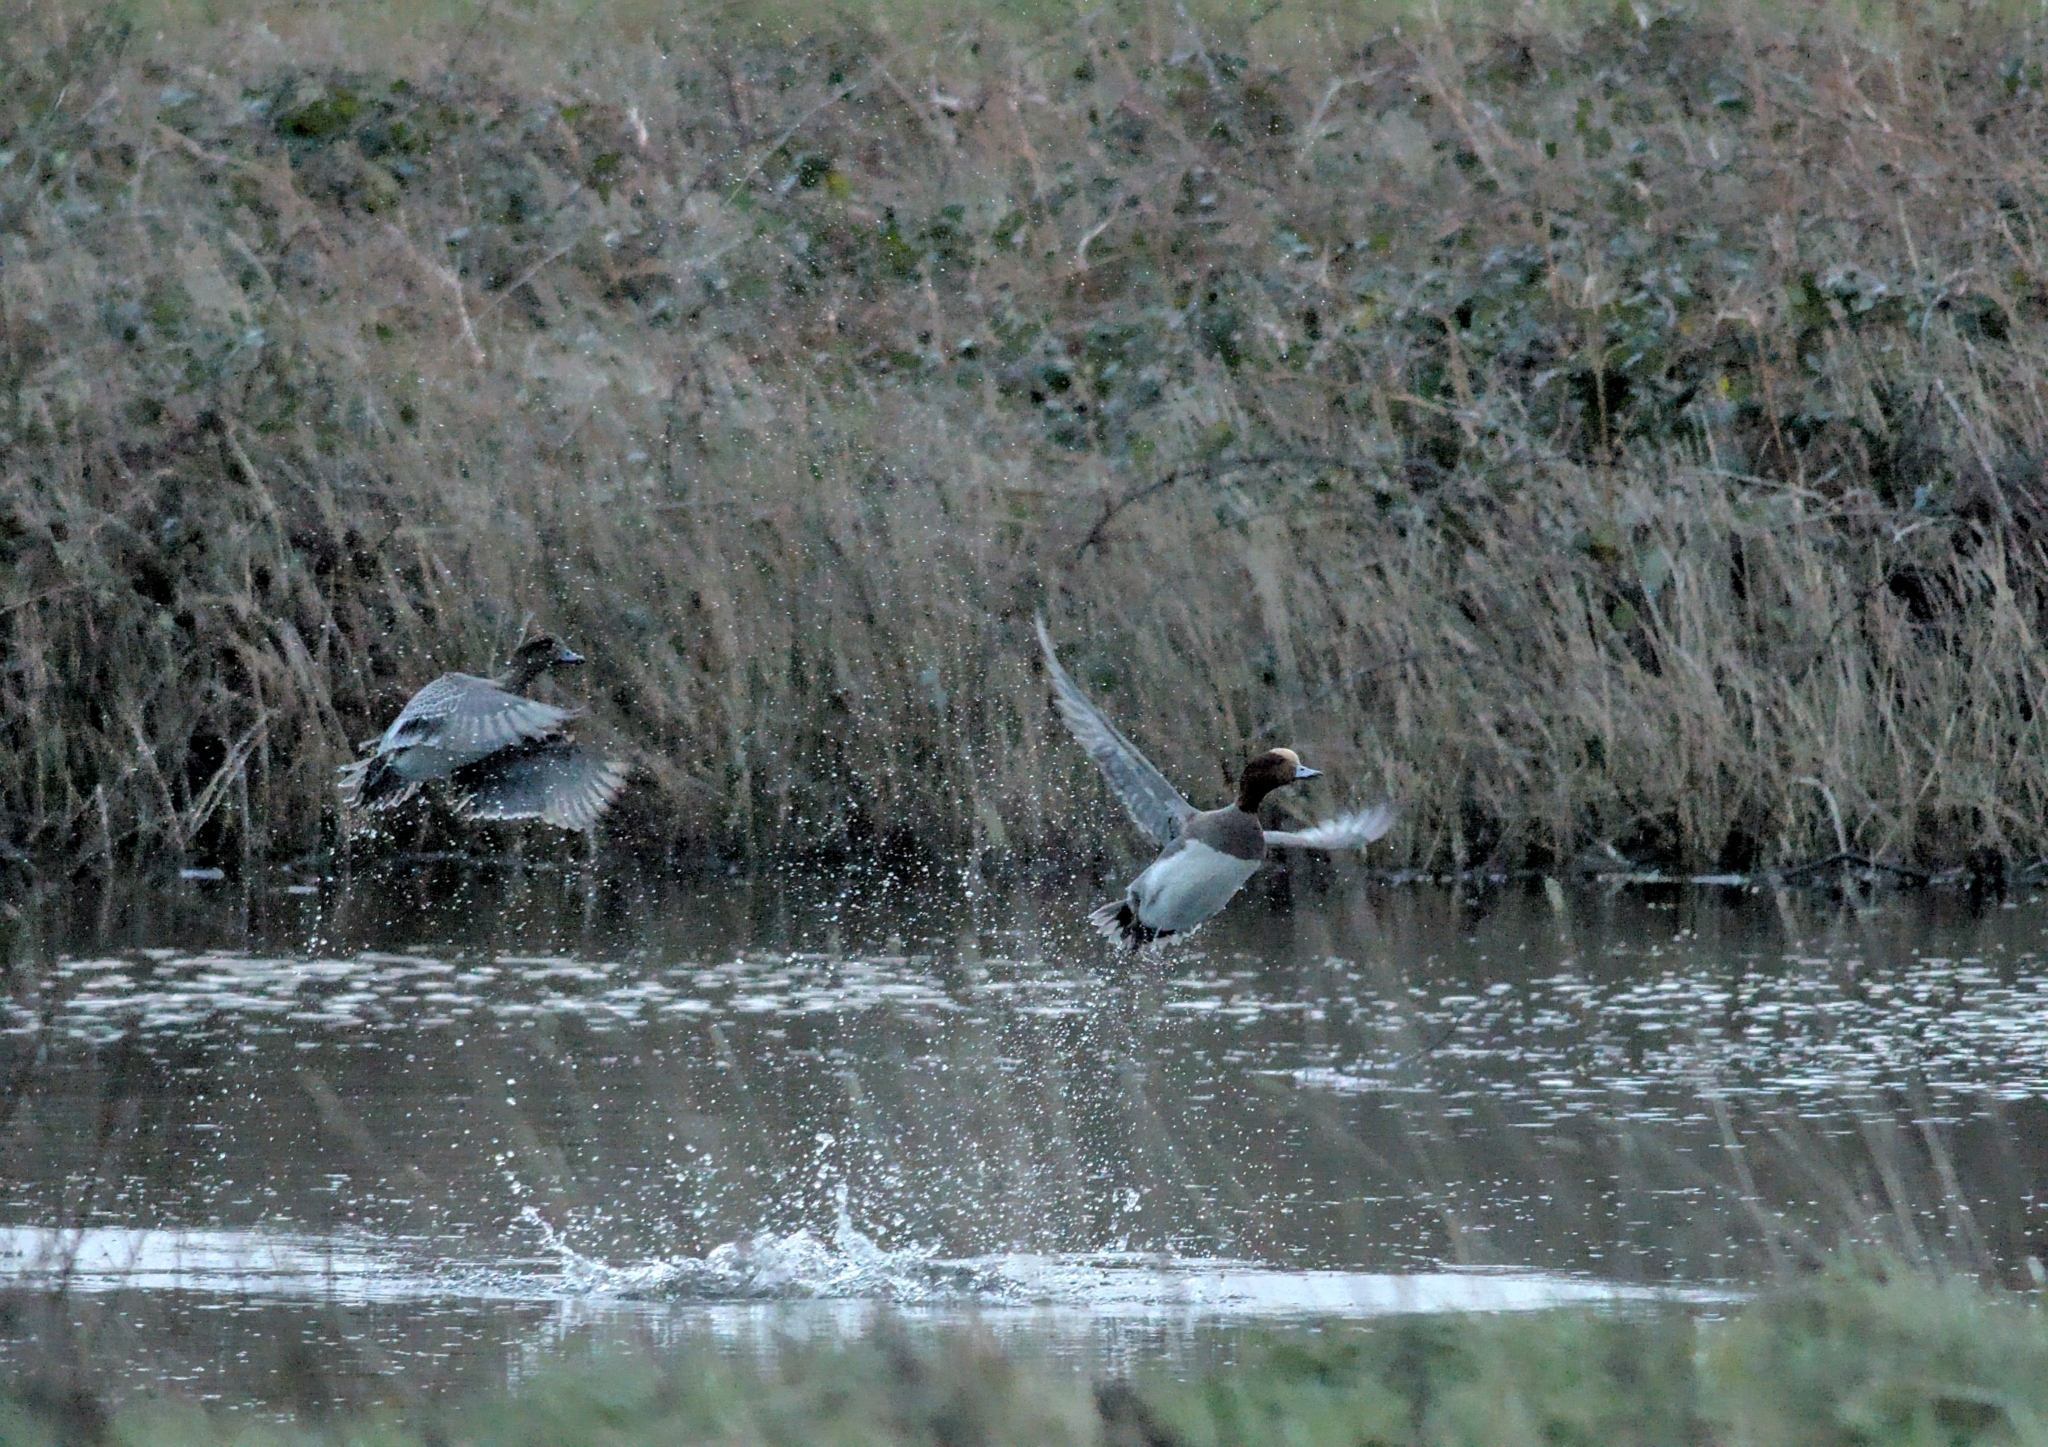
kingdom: Animalia
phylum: Chordata
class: Aves
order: Anseriformes
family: Anatidae
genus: Mareca
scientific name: Mareca penelope
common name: Eurasian wigeon
